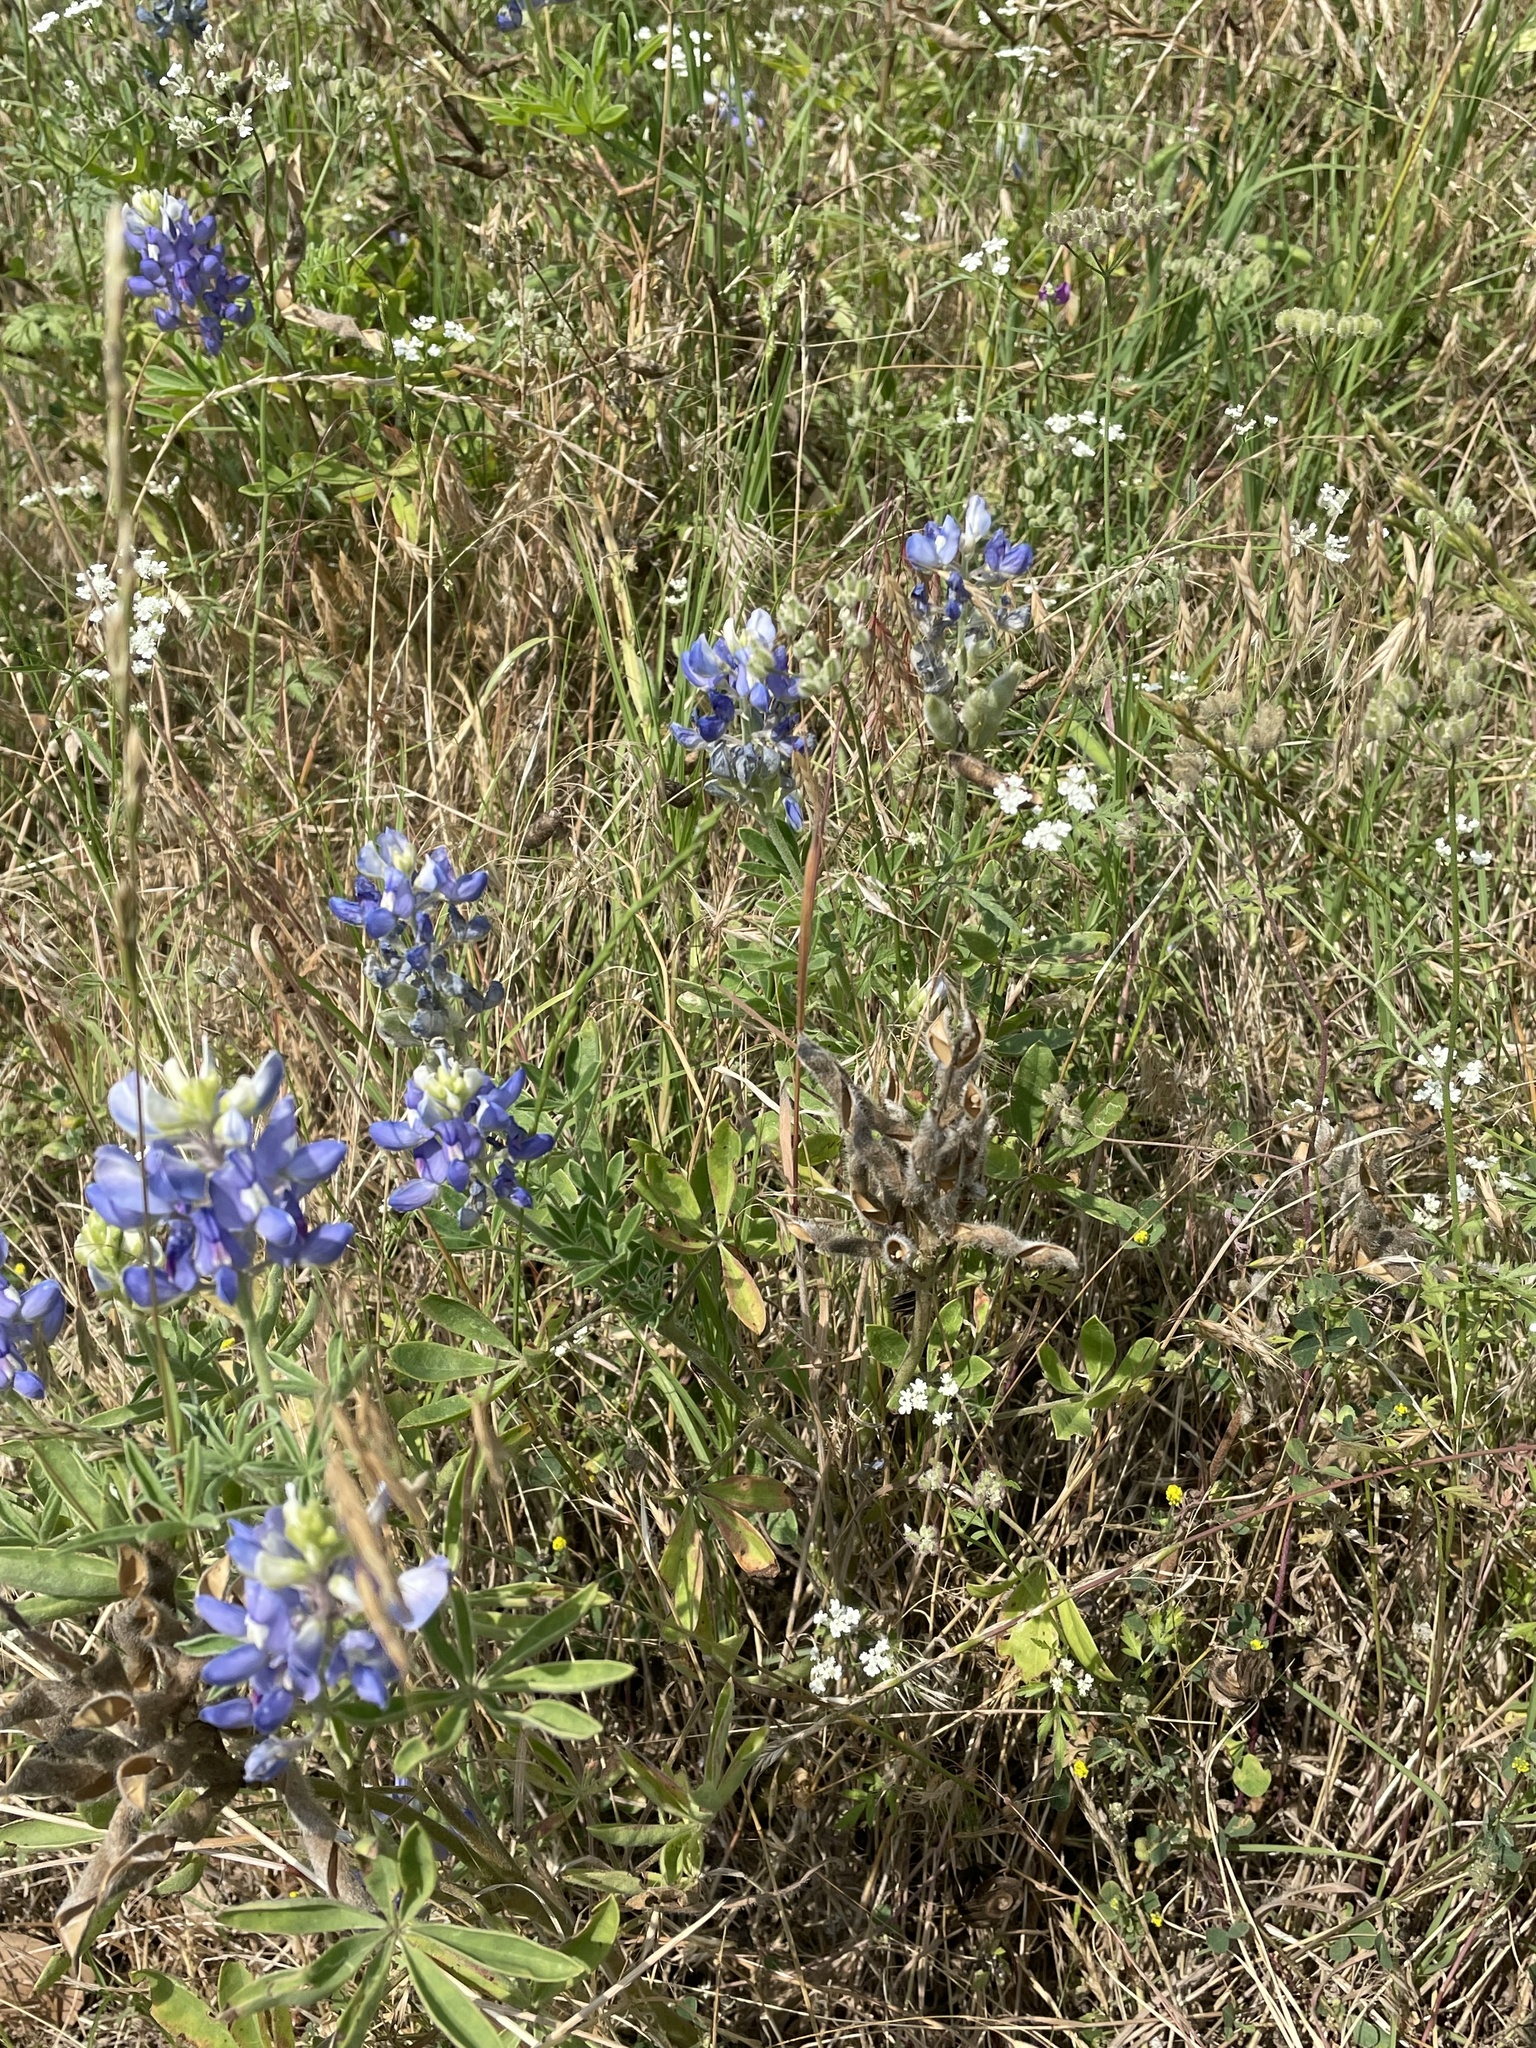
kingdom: Plantae
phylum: Tracheophyta
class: Magnoliopsida
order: Fabales
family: Fabaceae
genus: Lupinus
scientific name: Lupinus texensis
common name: Texas bluebonnet
